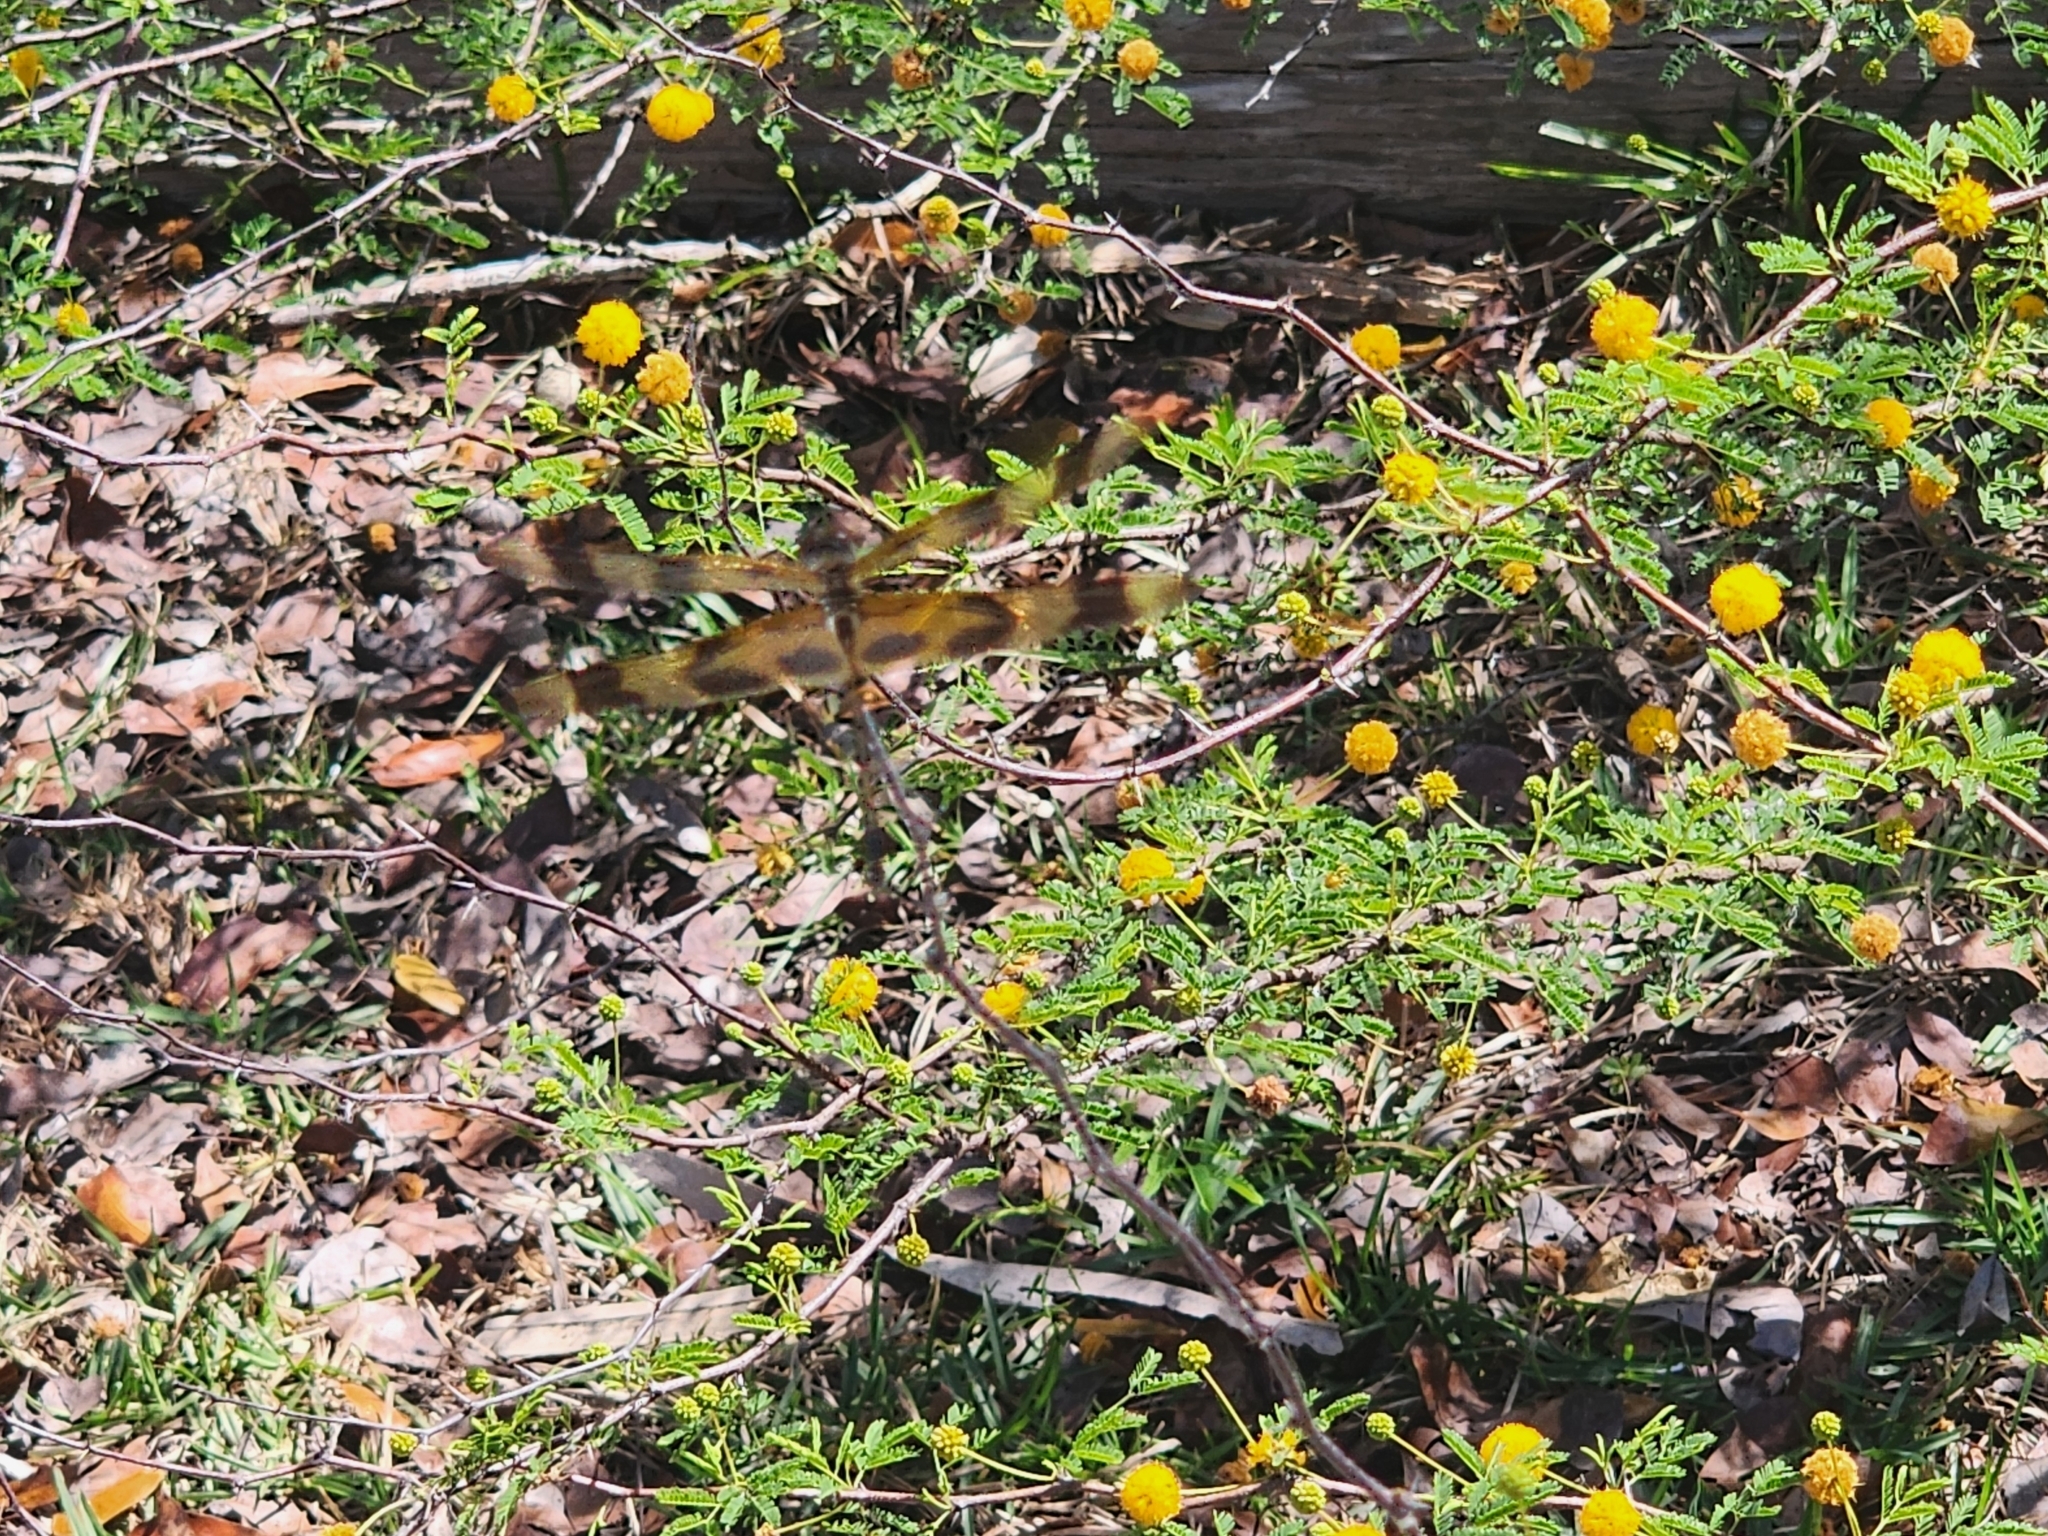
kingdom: Animalia
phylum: Arthropoda
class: Insecta
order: Odonata
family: Libellulidae
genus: Celithemis
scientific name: Celithemis eponina
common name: Halloween pennant
